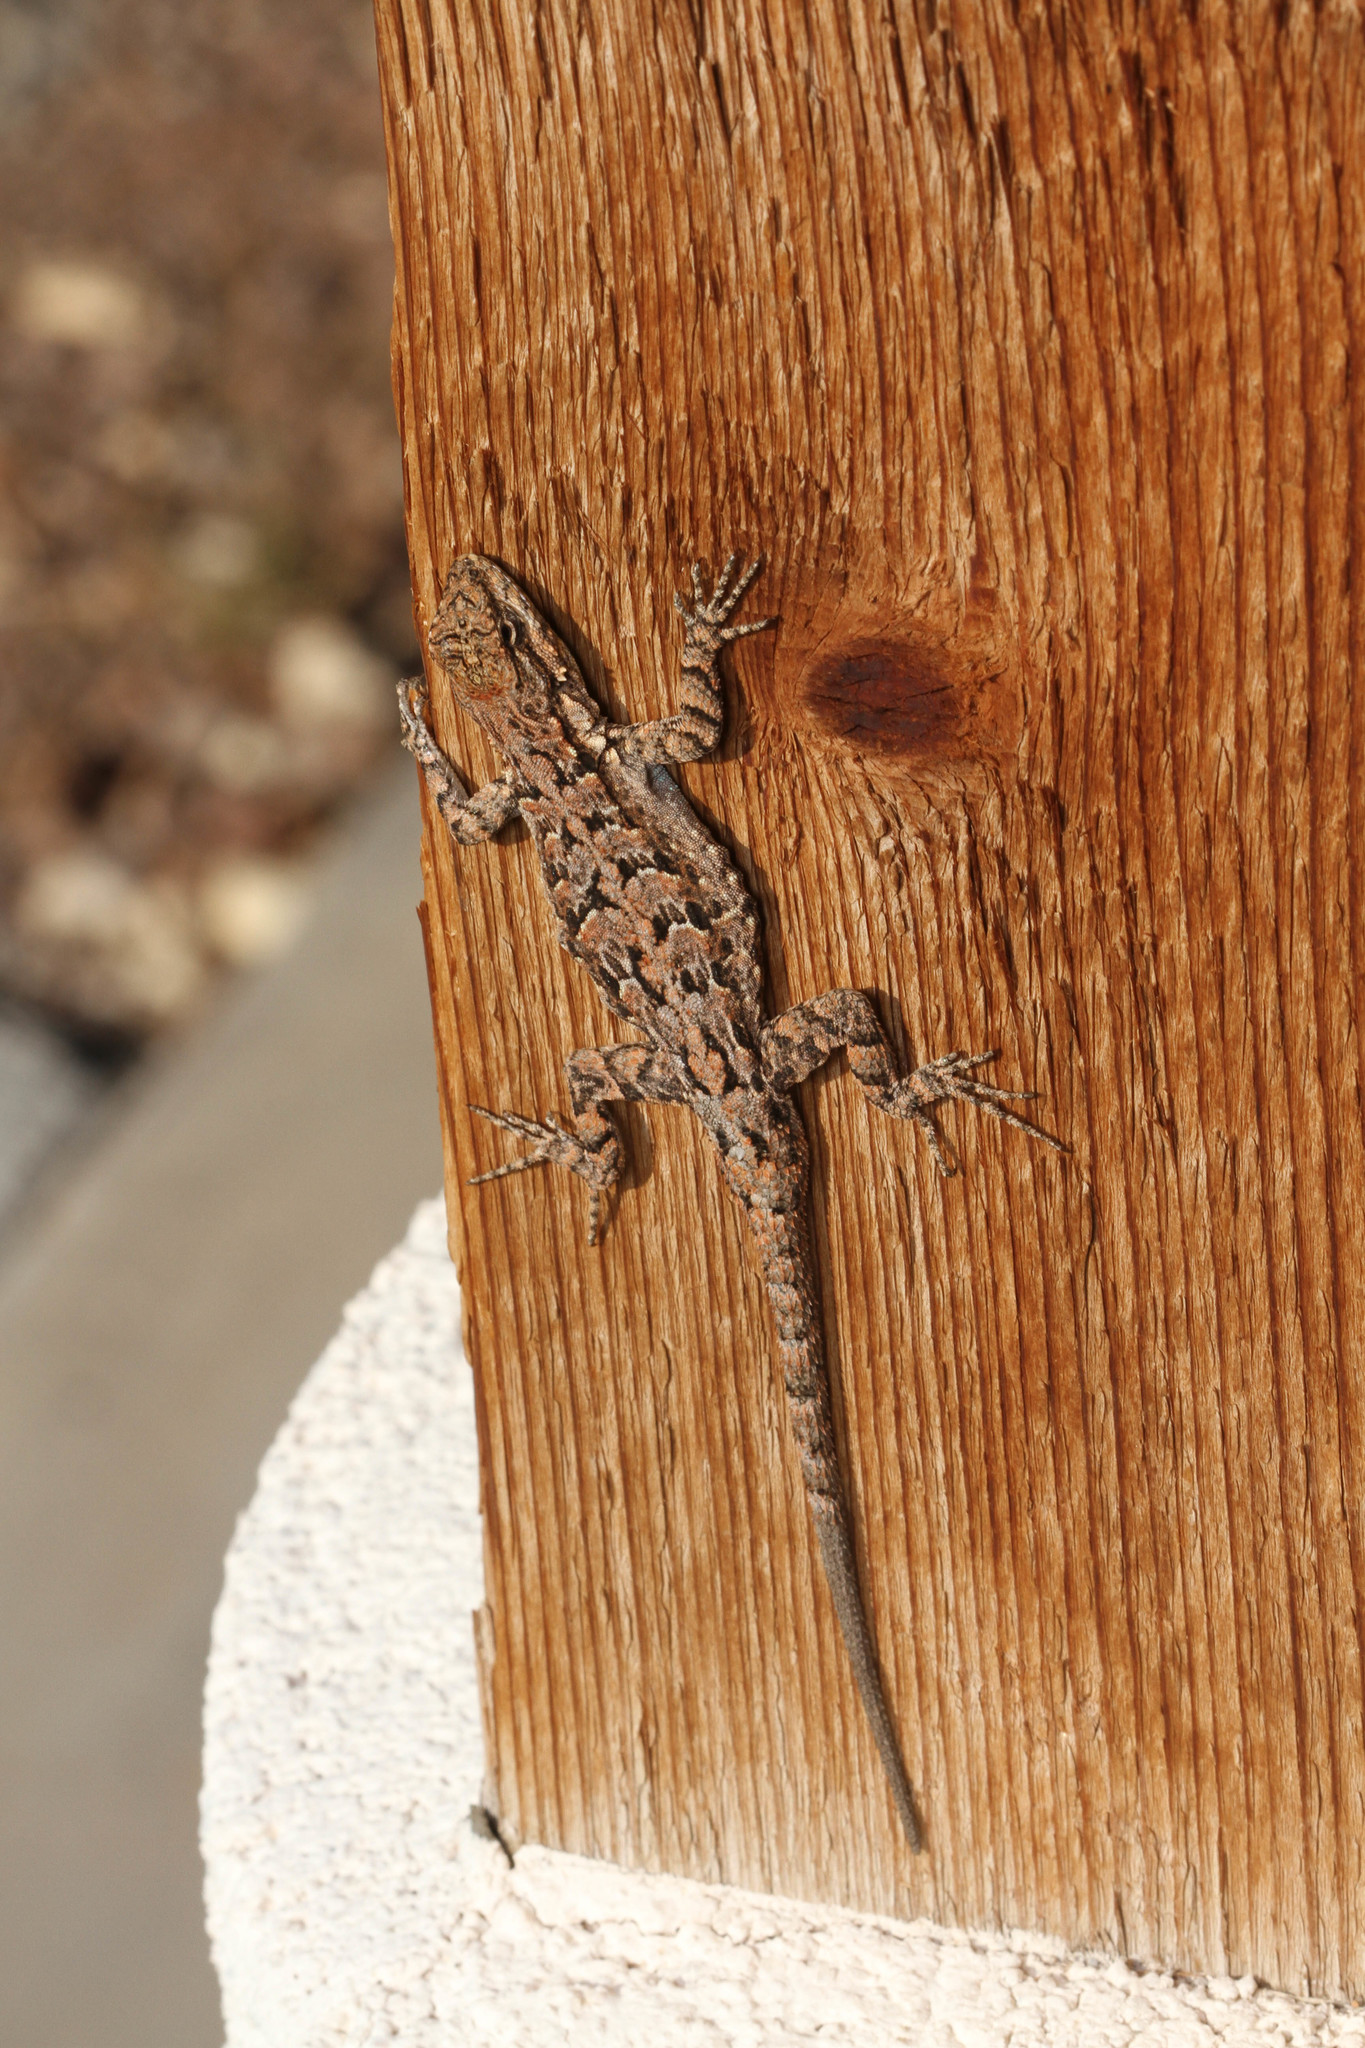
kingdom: Animalia
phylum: Chordata
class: Squamata
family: Phrynosomatidae
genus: Urosaurus
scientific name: Urosaurus ornatus
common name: Ornate tree lizard
